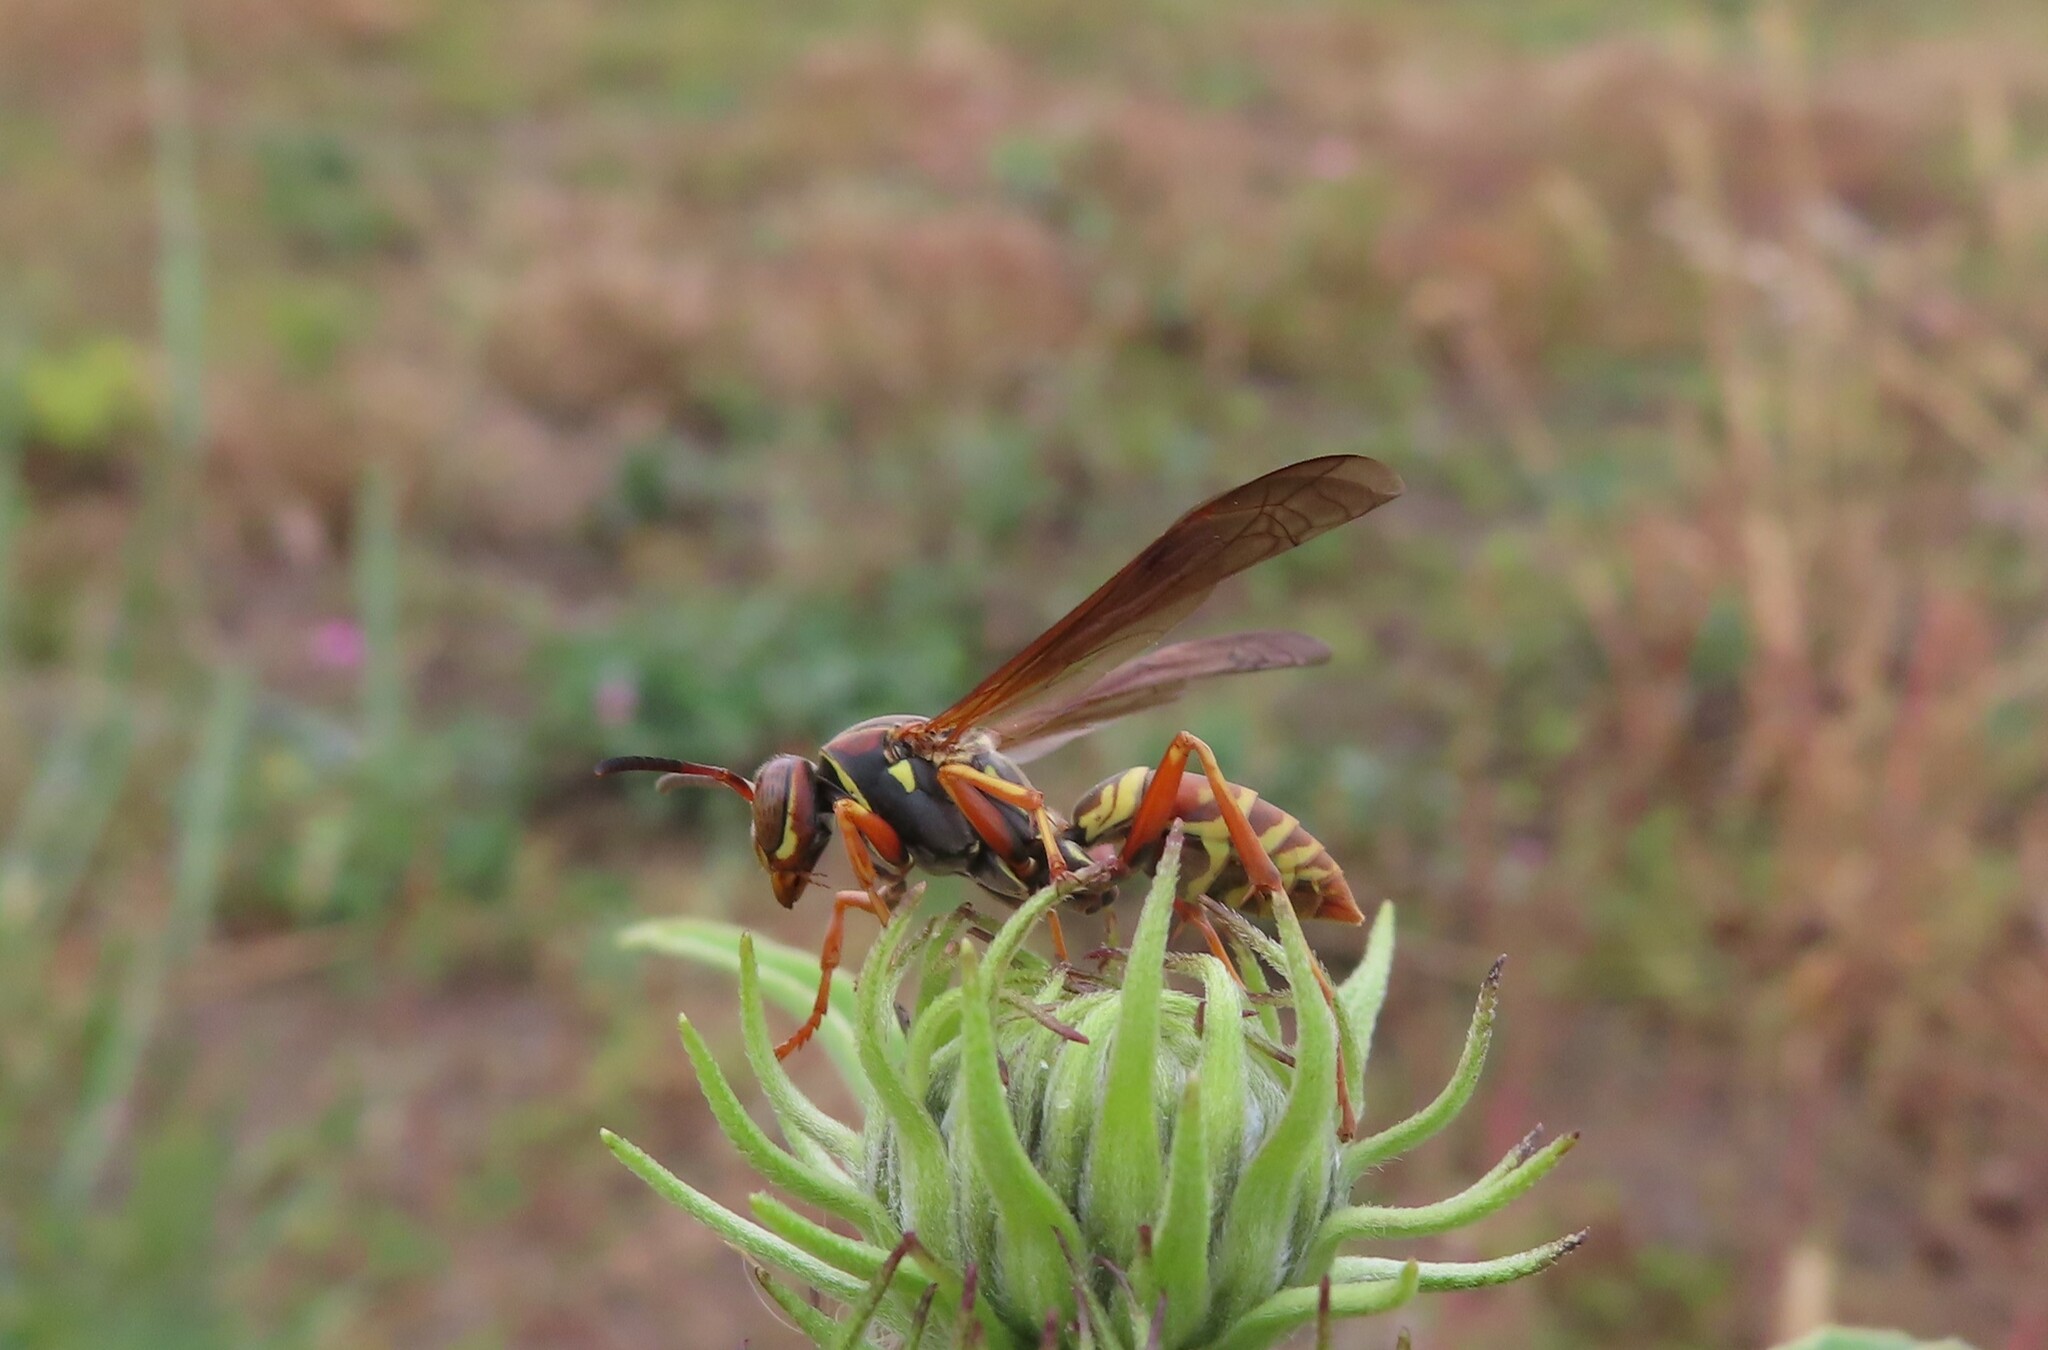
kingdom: Animalia
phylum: Arthropoda
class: Insecta
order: Hymenoptera
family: Eumenidae
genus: Polistes
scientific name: Polistes fuscatus
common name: Dark paper wasp
